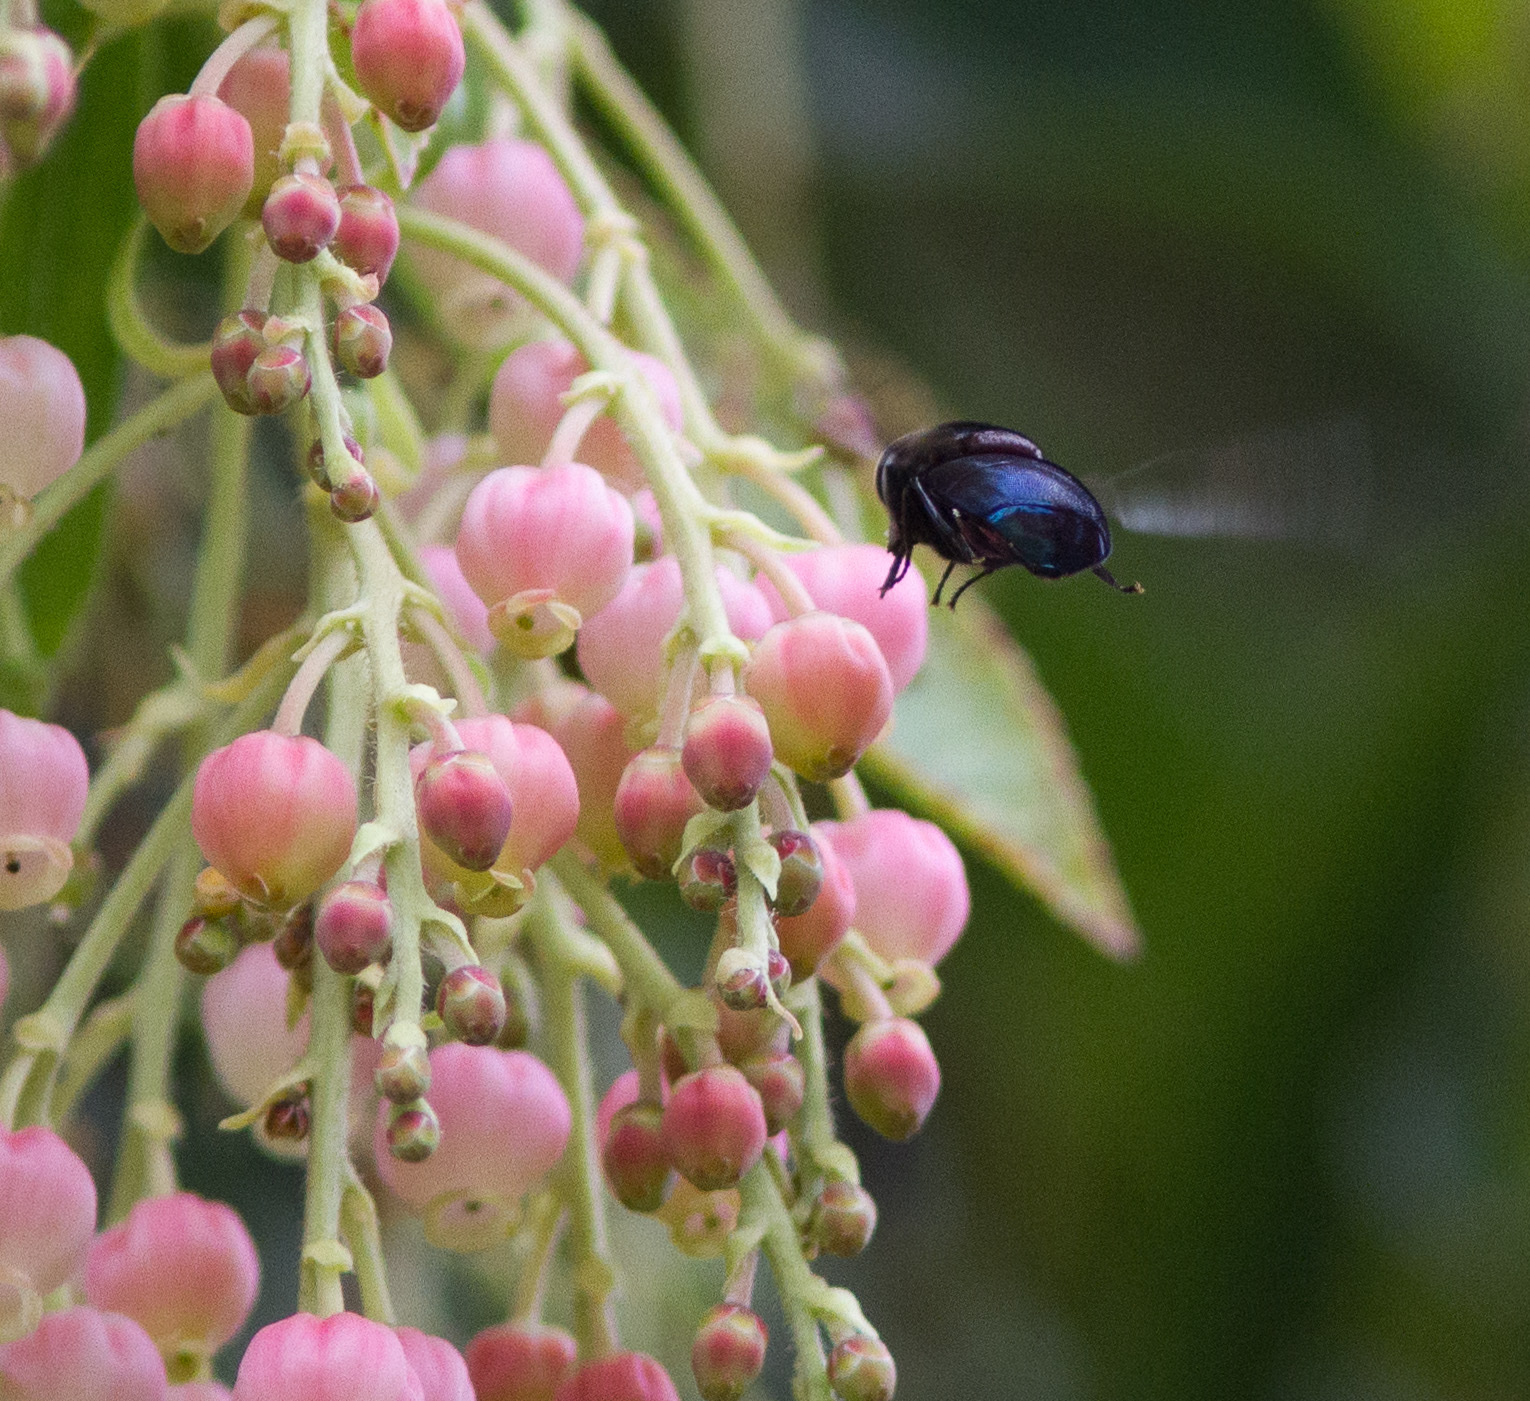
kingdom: Animalia
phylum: Arthropoda
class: Insecta
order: Diptera
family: Syrphidae
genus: Copestylum
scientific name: Copestylum violaceum
